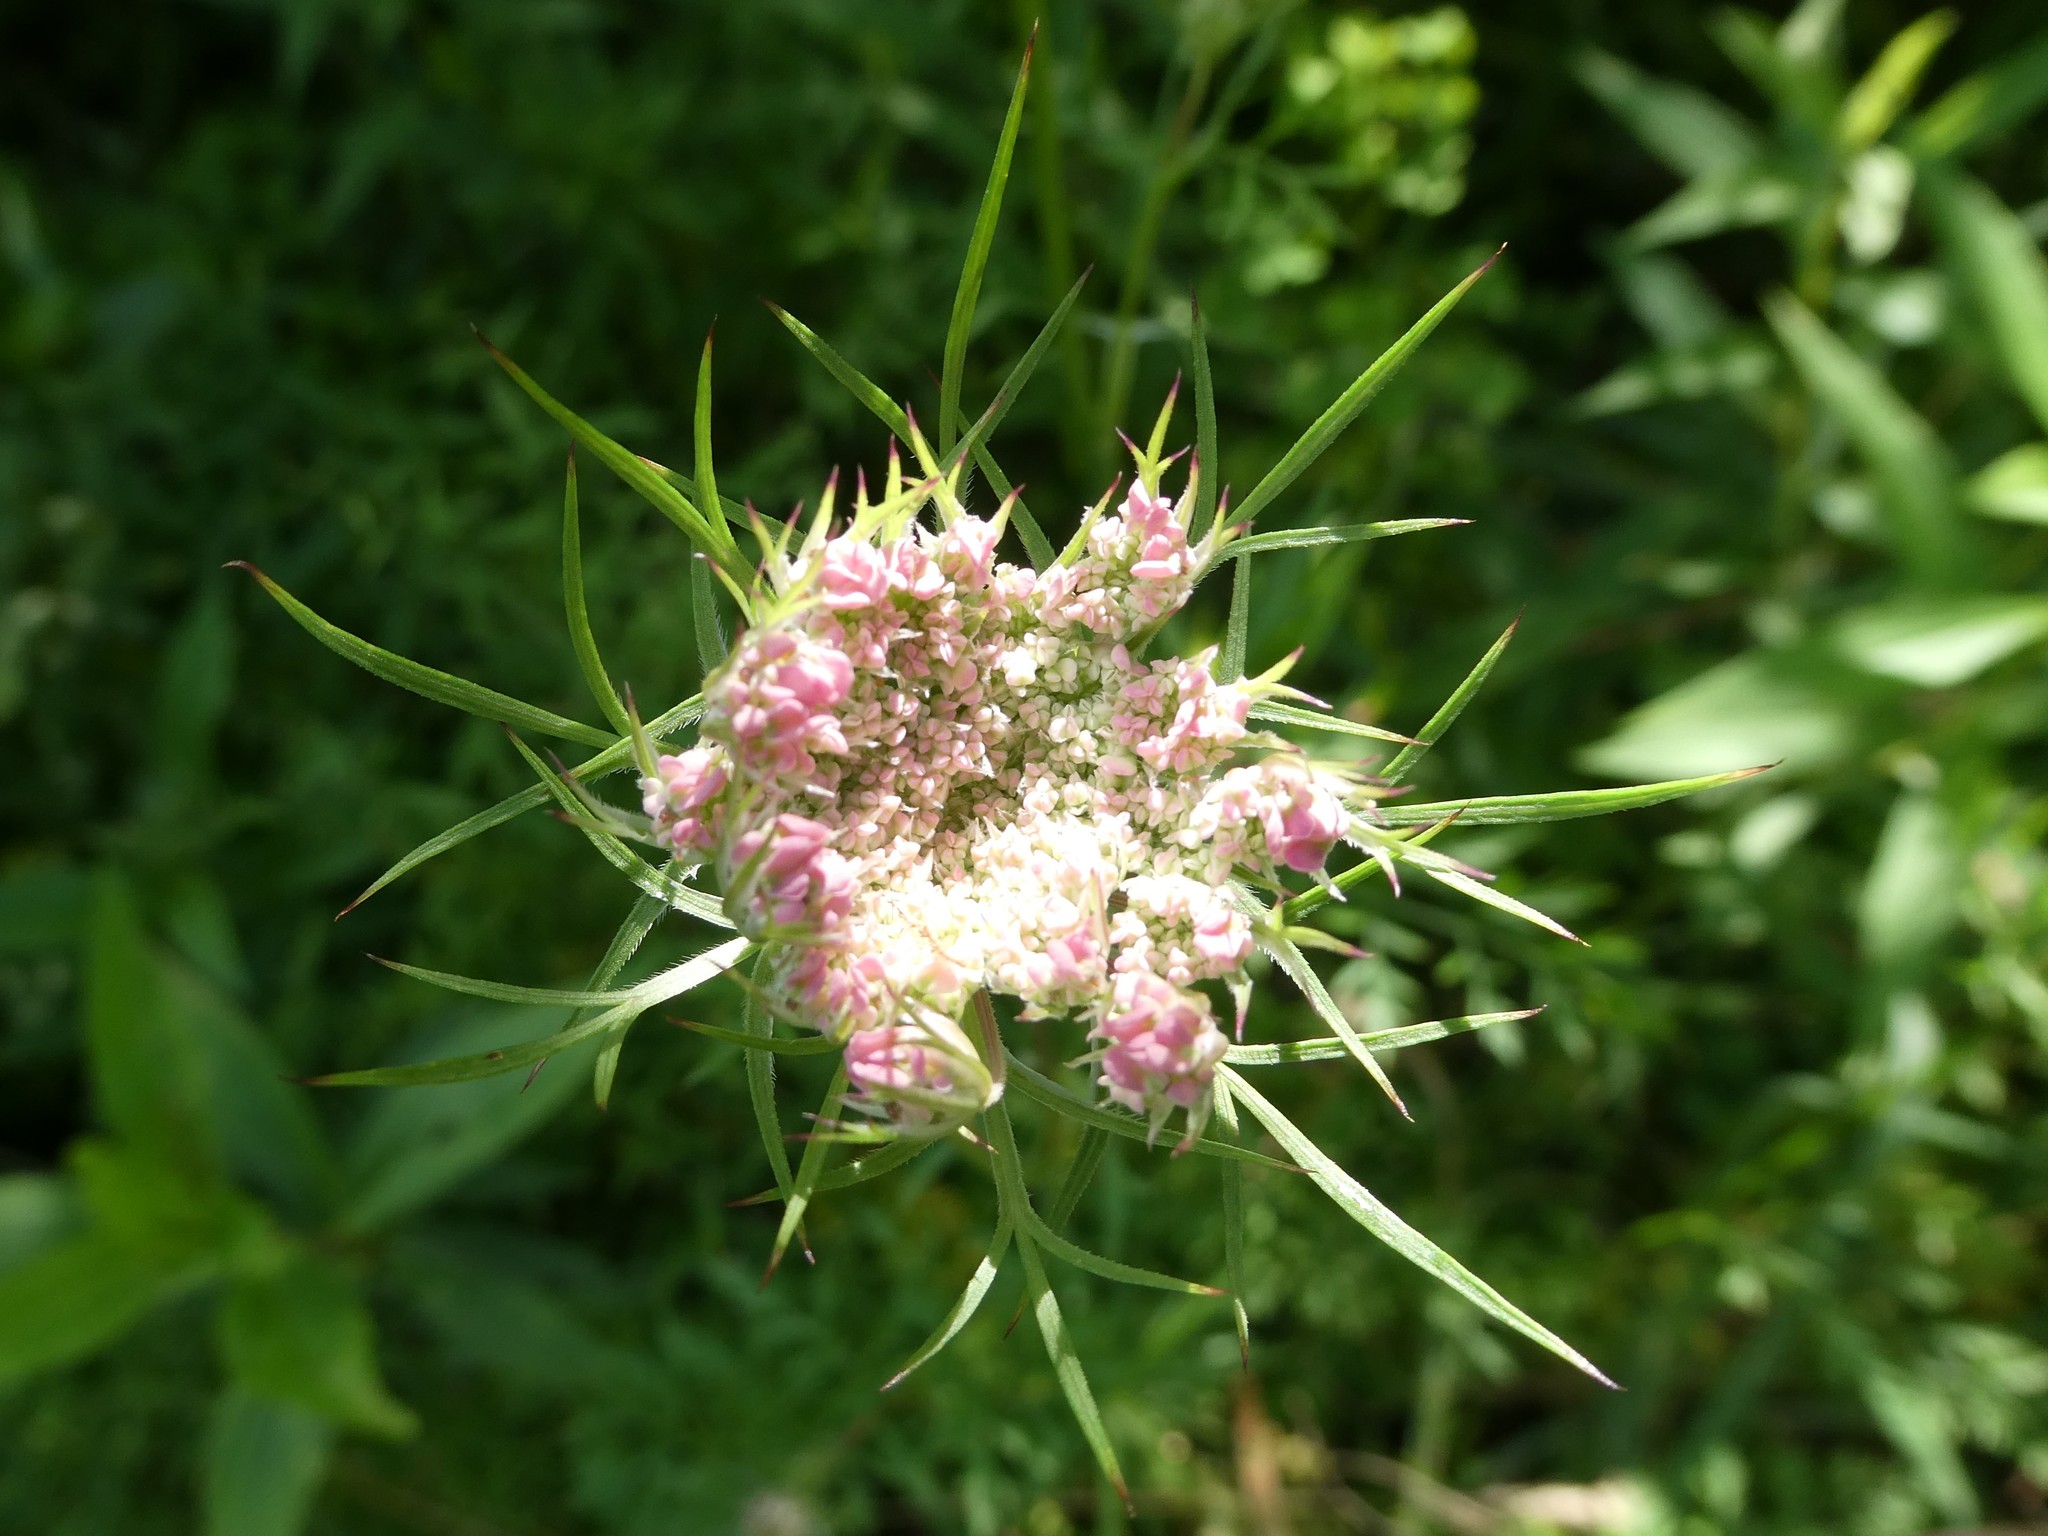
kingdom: Plantae
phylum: Tracheophyta
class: Magnoliopsida
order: Apiales
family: Apiaceae
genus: Daucus
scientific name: Daucus carota
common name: Wild carrot
